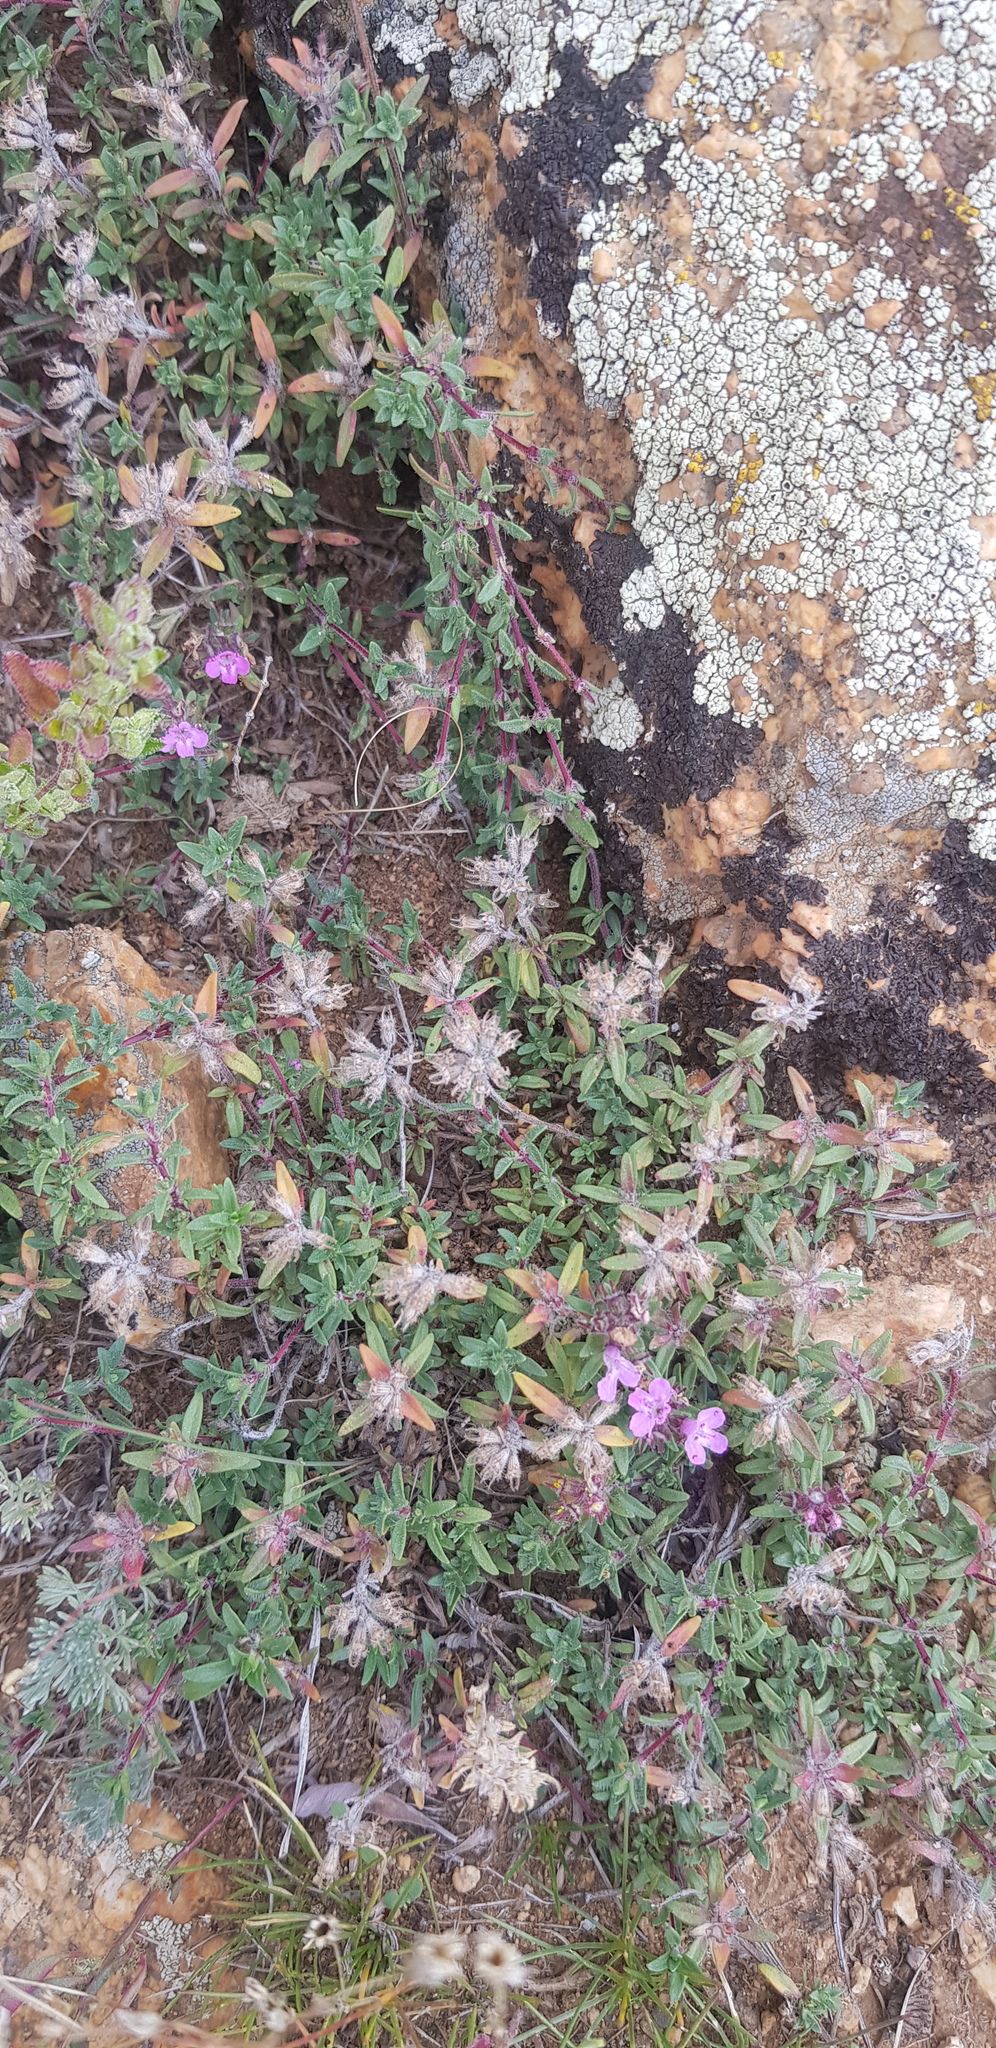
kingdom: Plantae
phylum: Tracheophyta
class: Magnoliopsida
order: Lamiales
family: Lamiaceae
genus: Thymus
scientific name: Thymus gobicus
